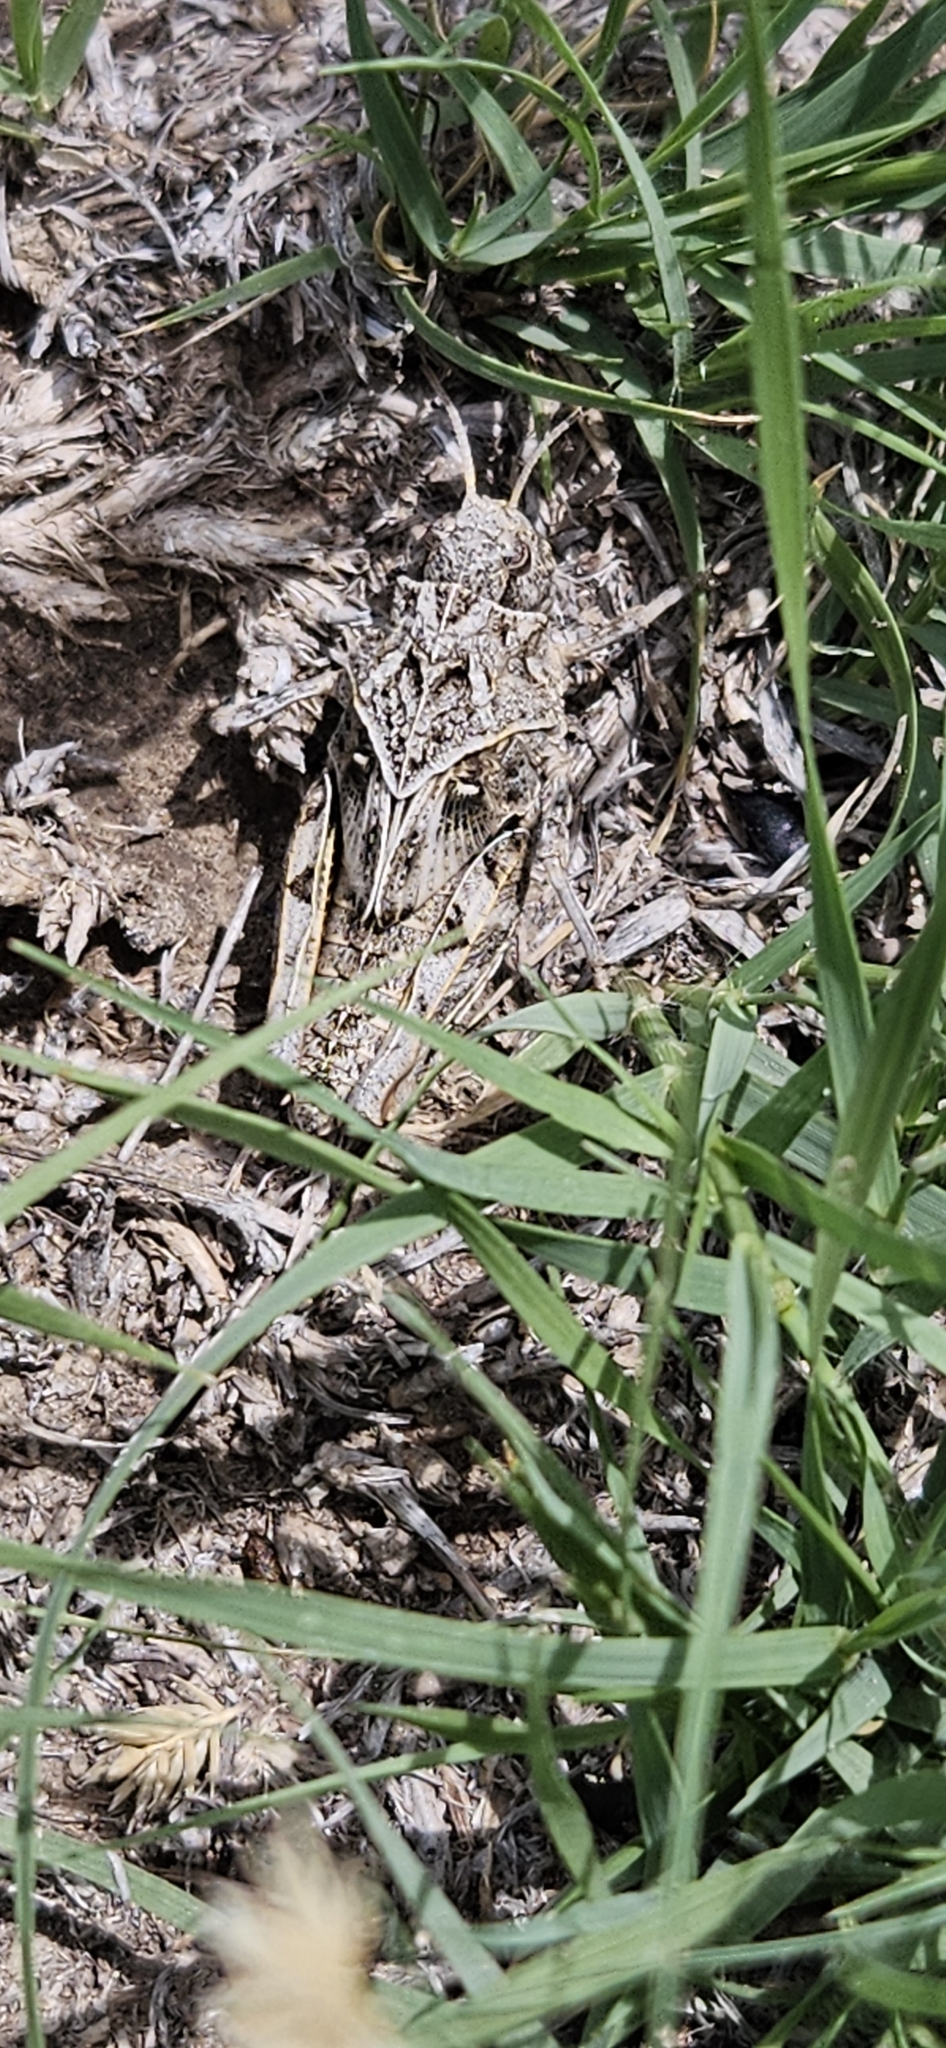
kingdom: Animalia
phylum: Arthropoda
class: Insecta
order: Orthoptera
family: Acrididae
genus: Pardalophora
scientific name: Pardalophora haldemanii
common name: Haldeman's locust
